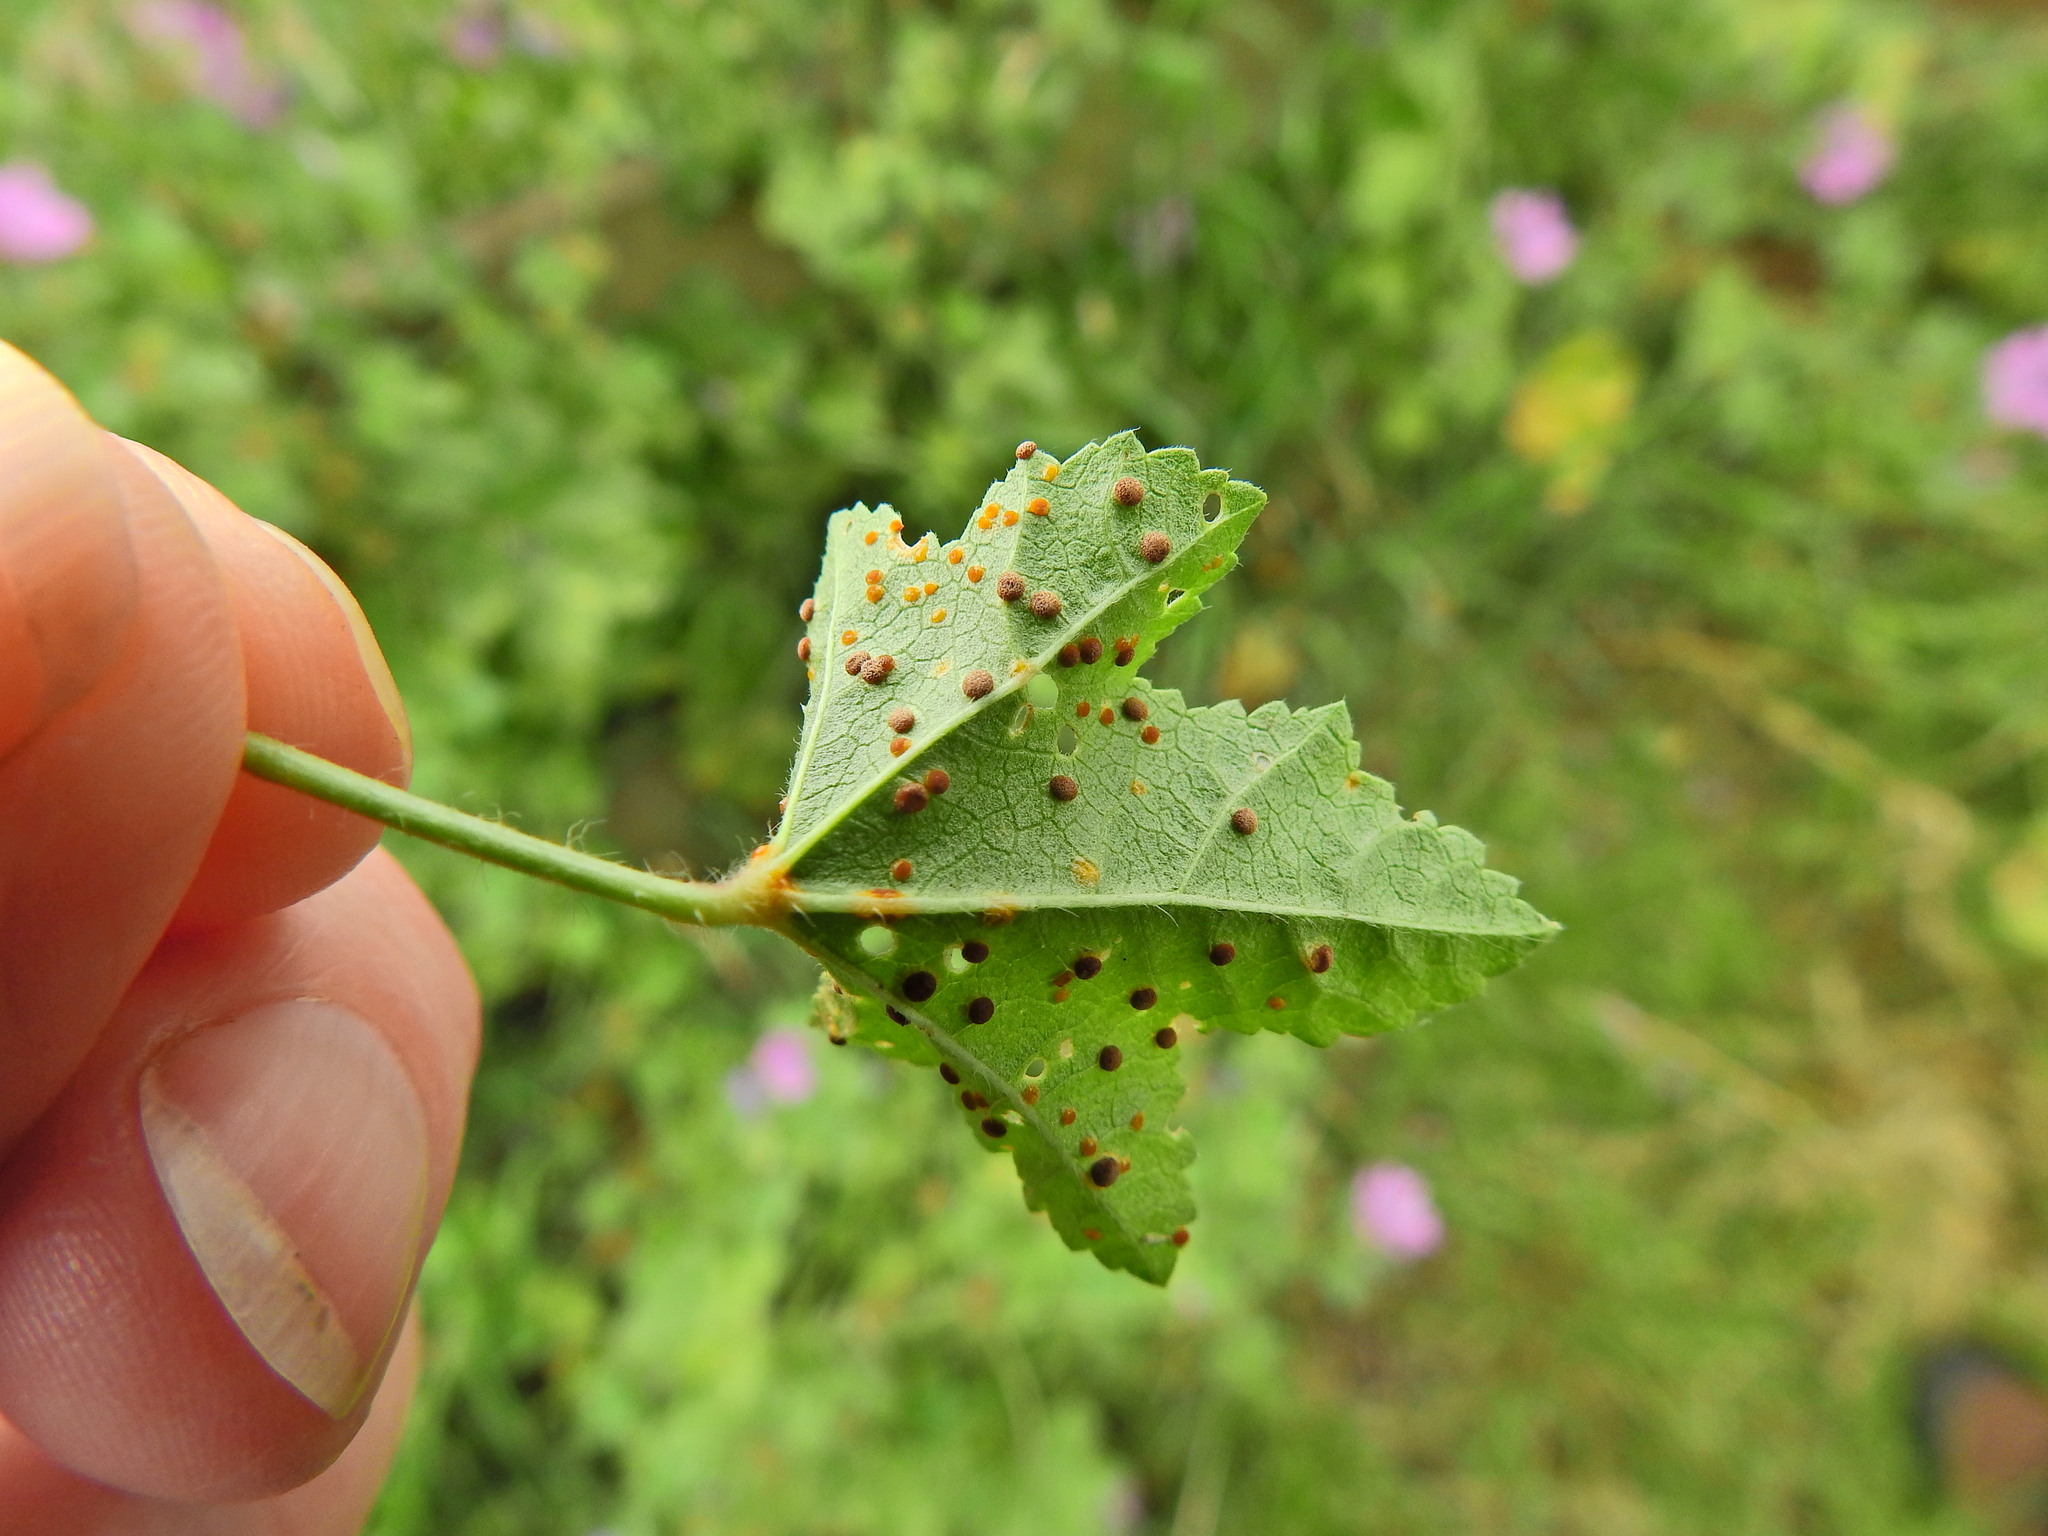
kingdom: Fungi
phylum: Basidiomycota
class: Pucciniomycetes
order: Pucciniales
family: Pucciniaceae
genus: Puccinia
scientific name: Puccinia malvacearum
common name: Hollyhock rust
